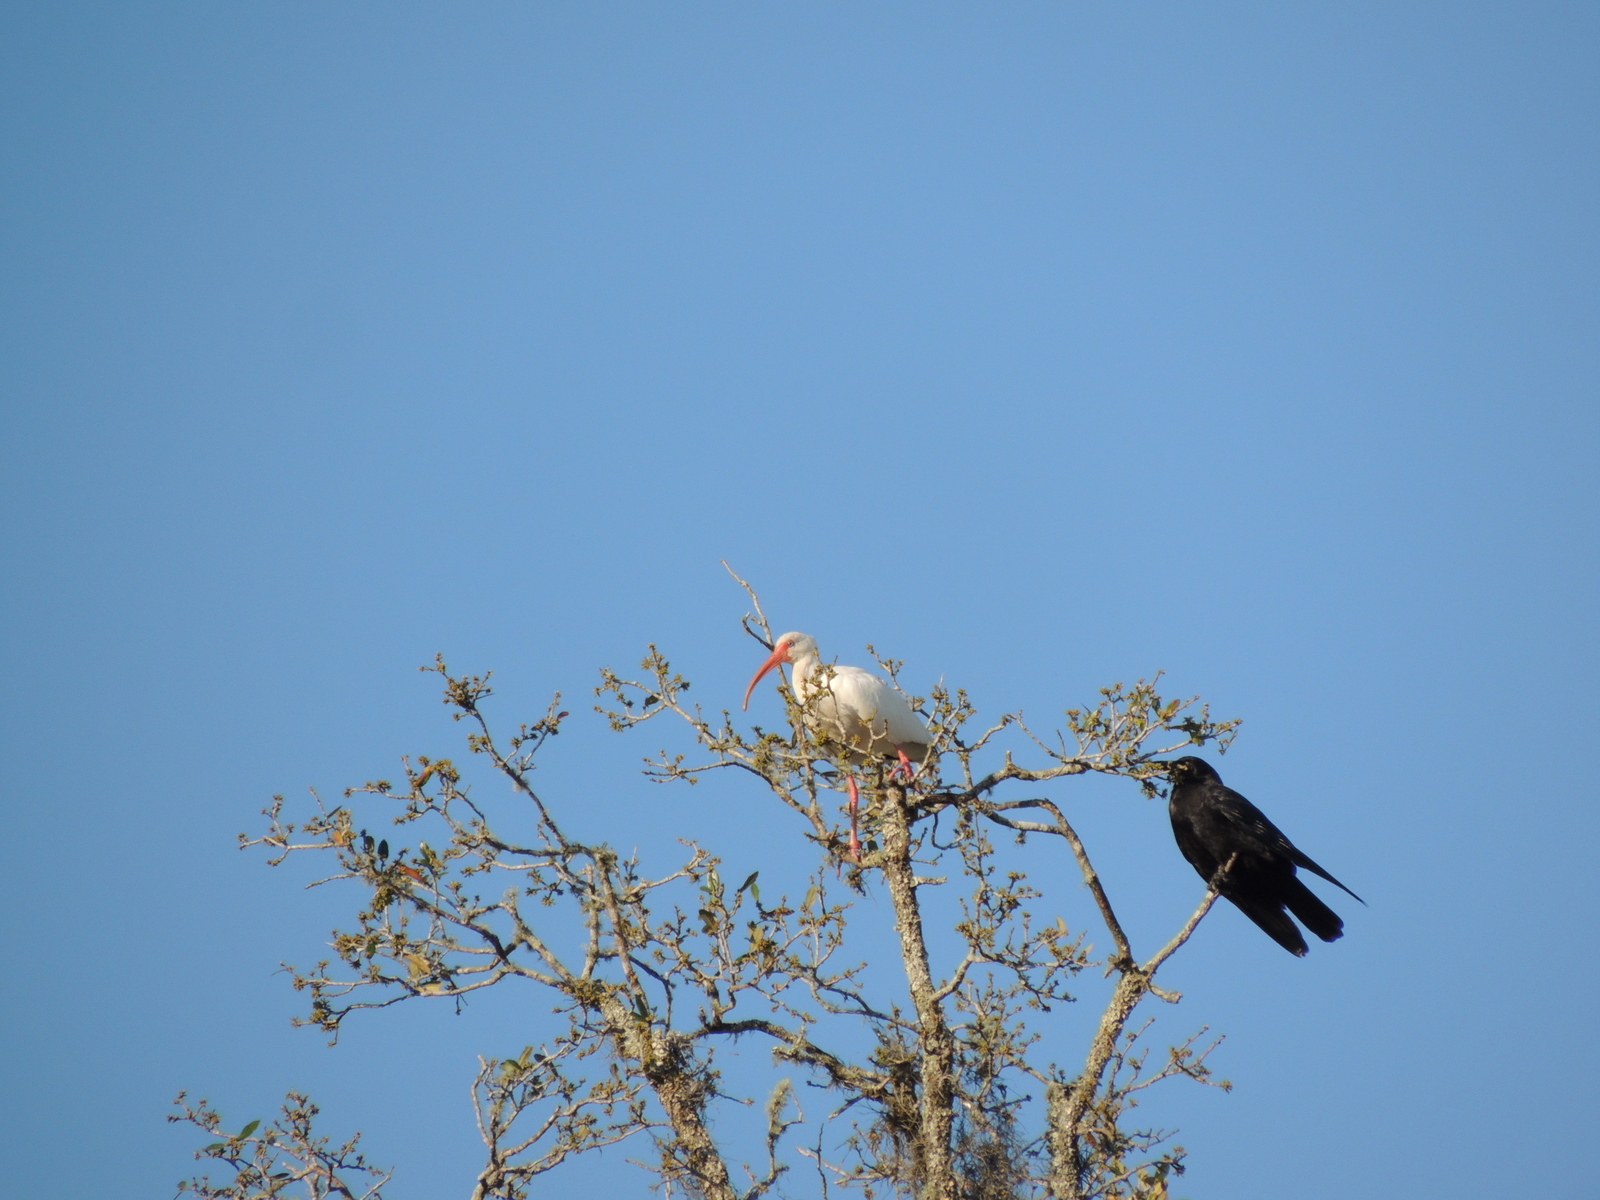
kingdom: Animalia
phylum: Chordata
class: Aves
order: Passeriformes
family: Corvidae
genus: Corvus
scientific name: Corvus
